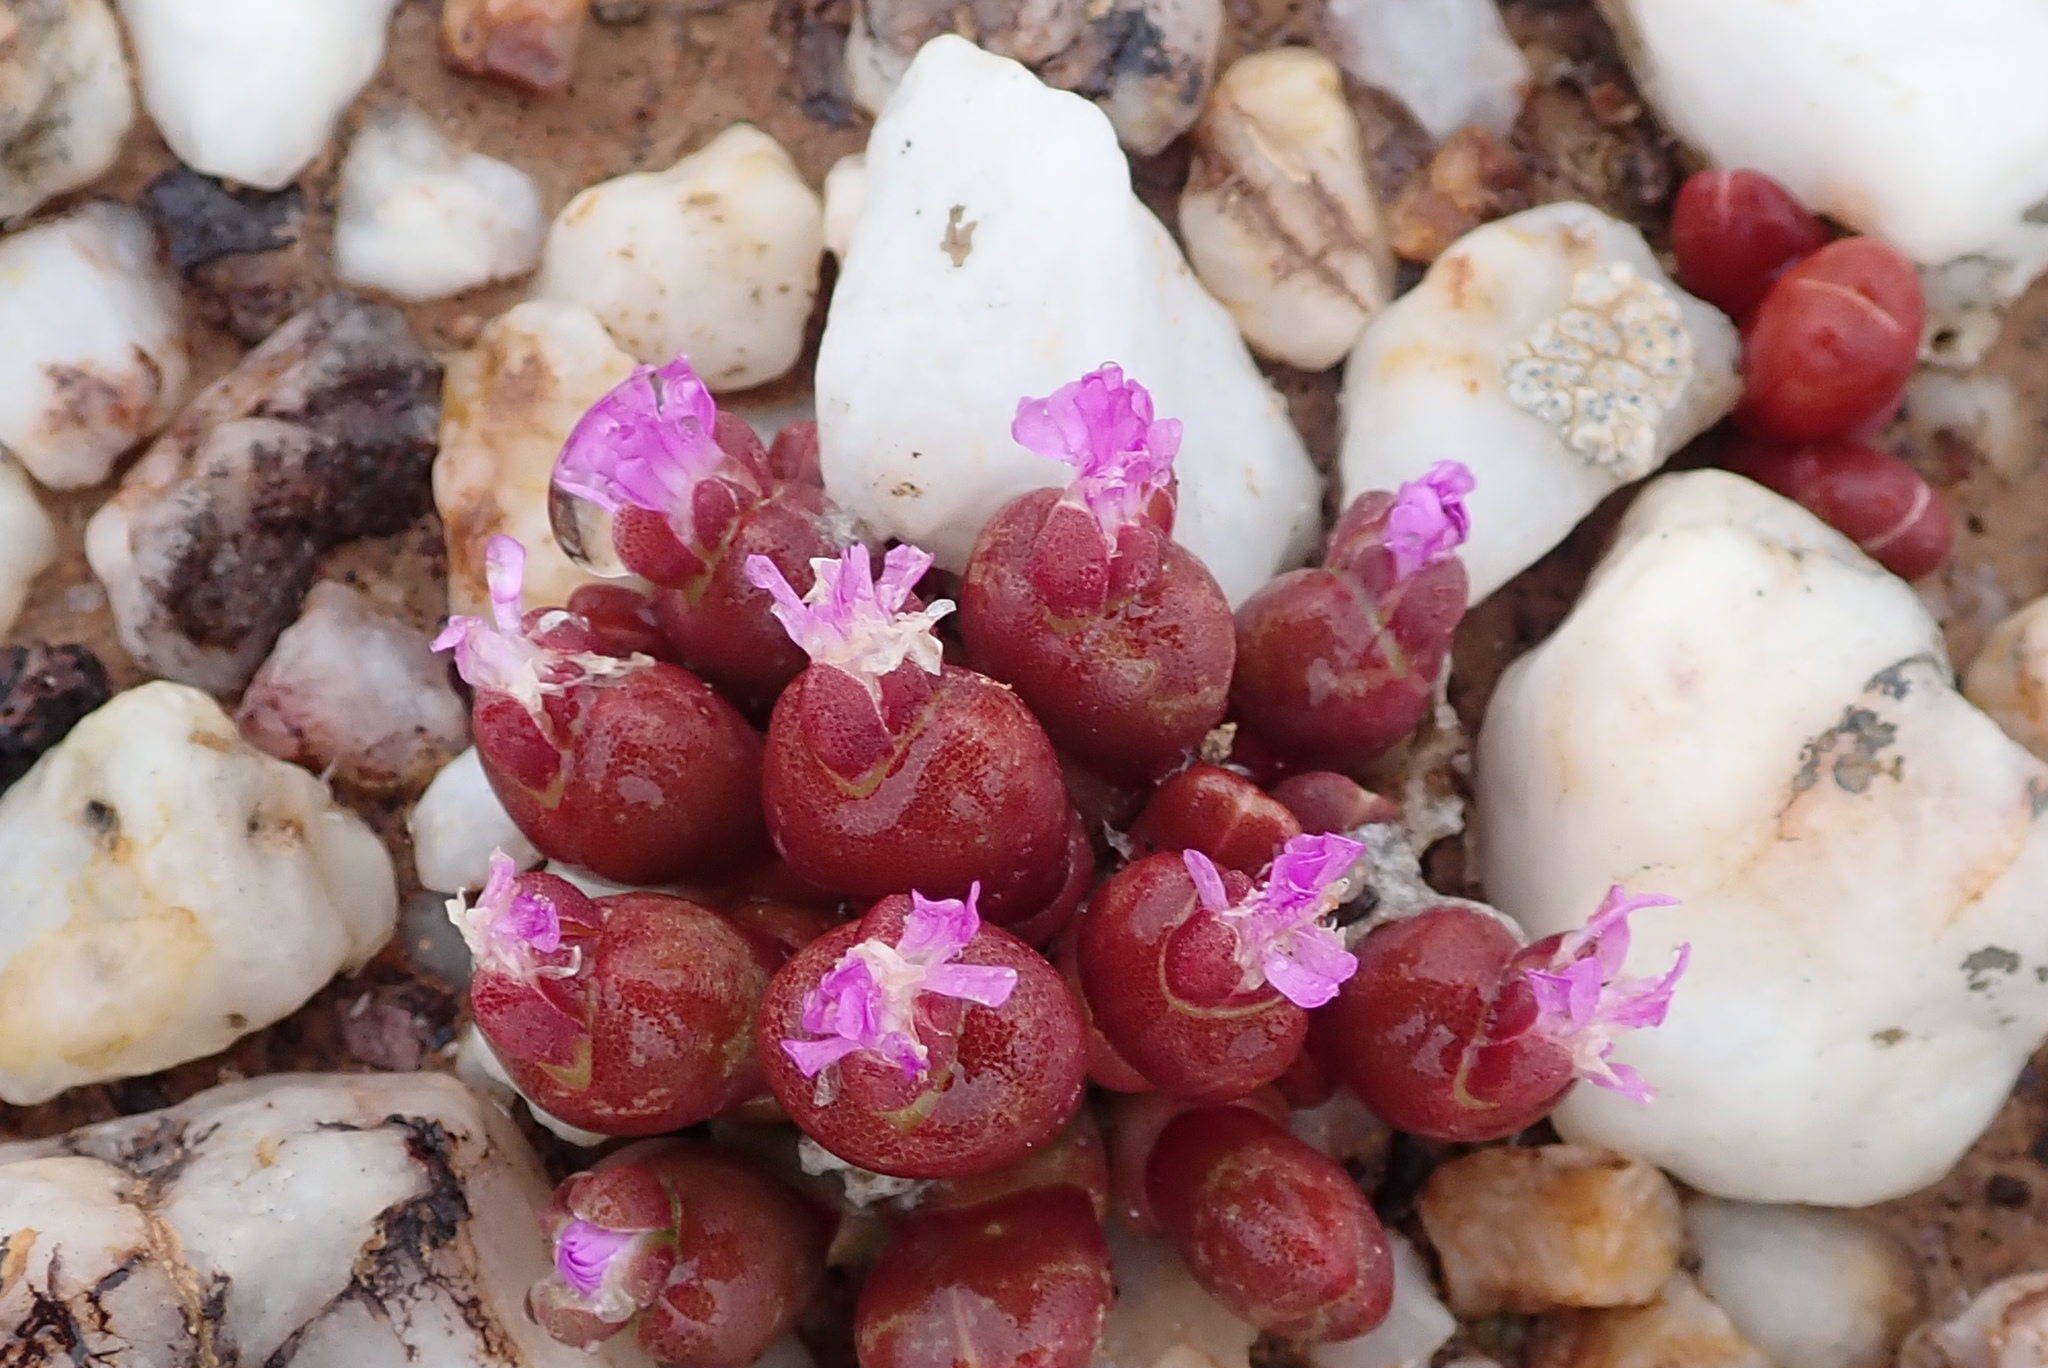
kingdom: Plantae
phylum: Tracheophyta
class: Magnoliopsida
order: Caryophyllales
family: Aizoaceae
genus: Oophytum
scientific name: Oophytum nanum
